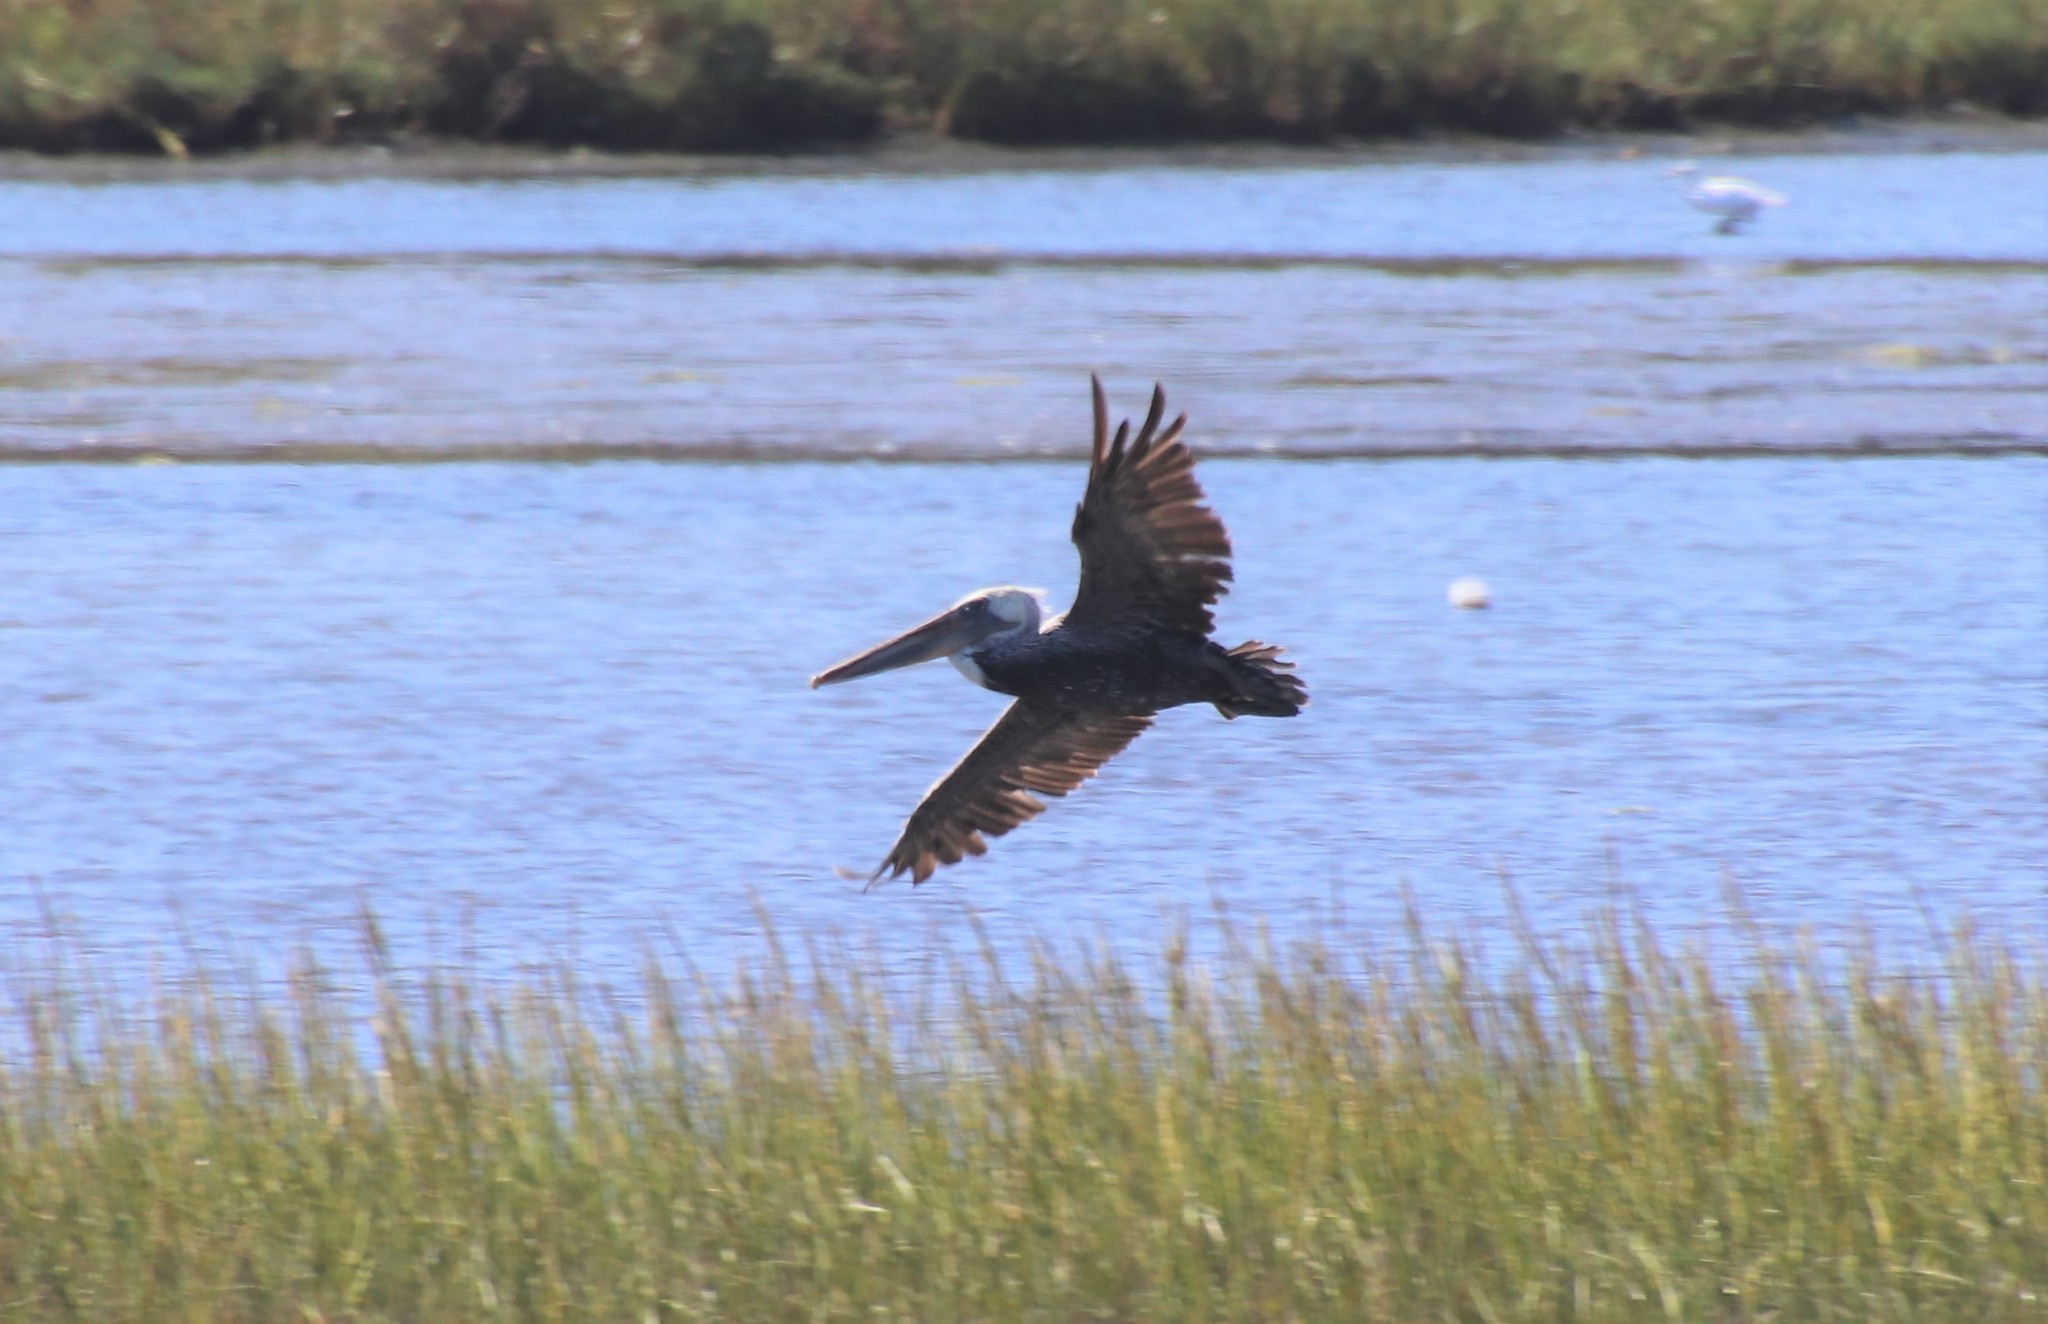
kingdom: Animalia
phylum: Chordata
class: Aves
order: Pelecaniformes
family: Pelecanidae
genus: Pelecanus
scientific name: Pelecanus occidentalis
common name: Brown pelican
